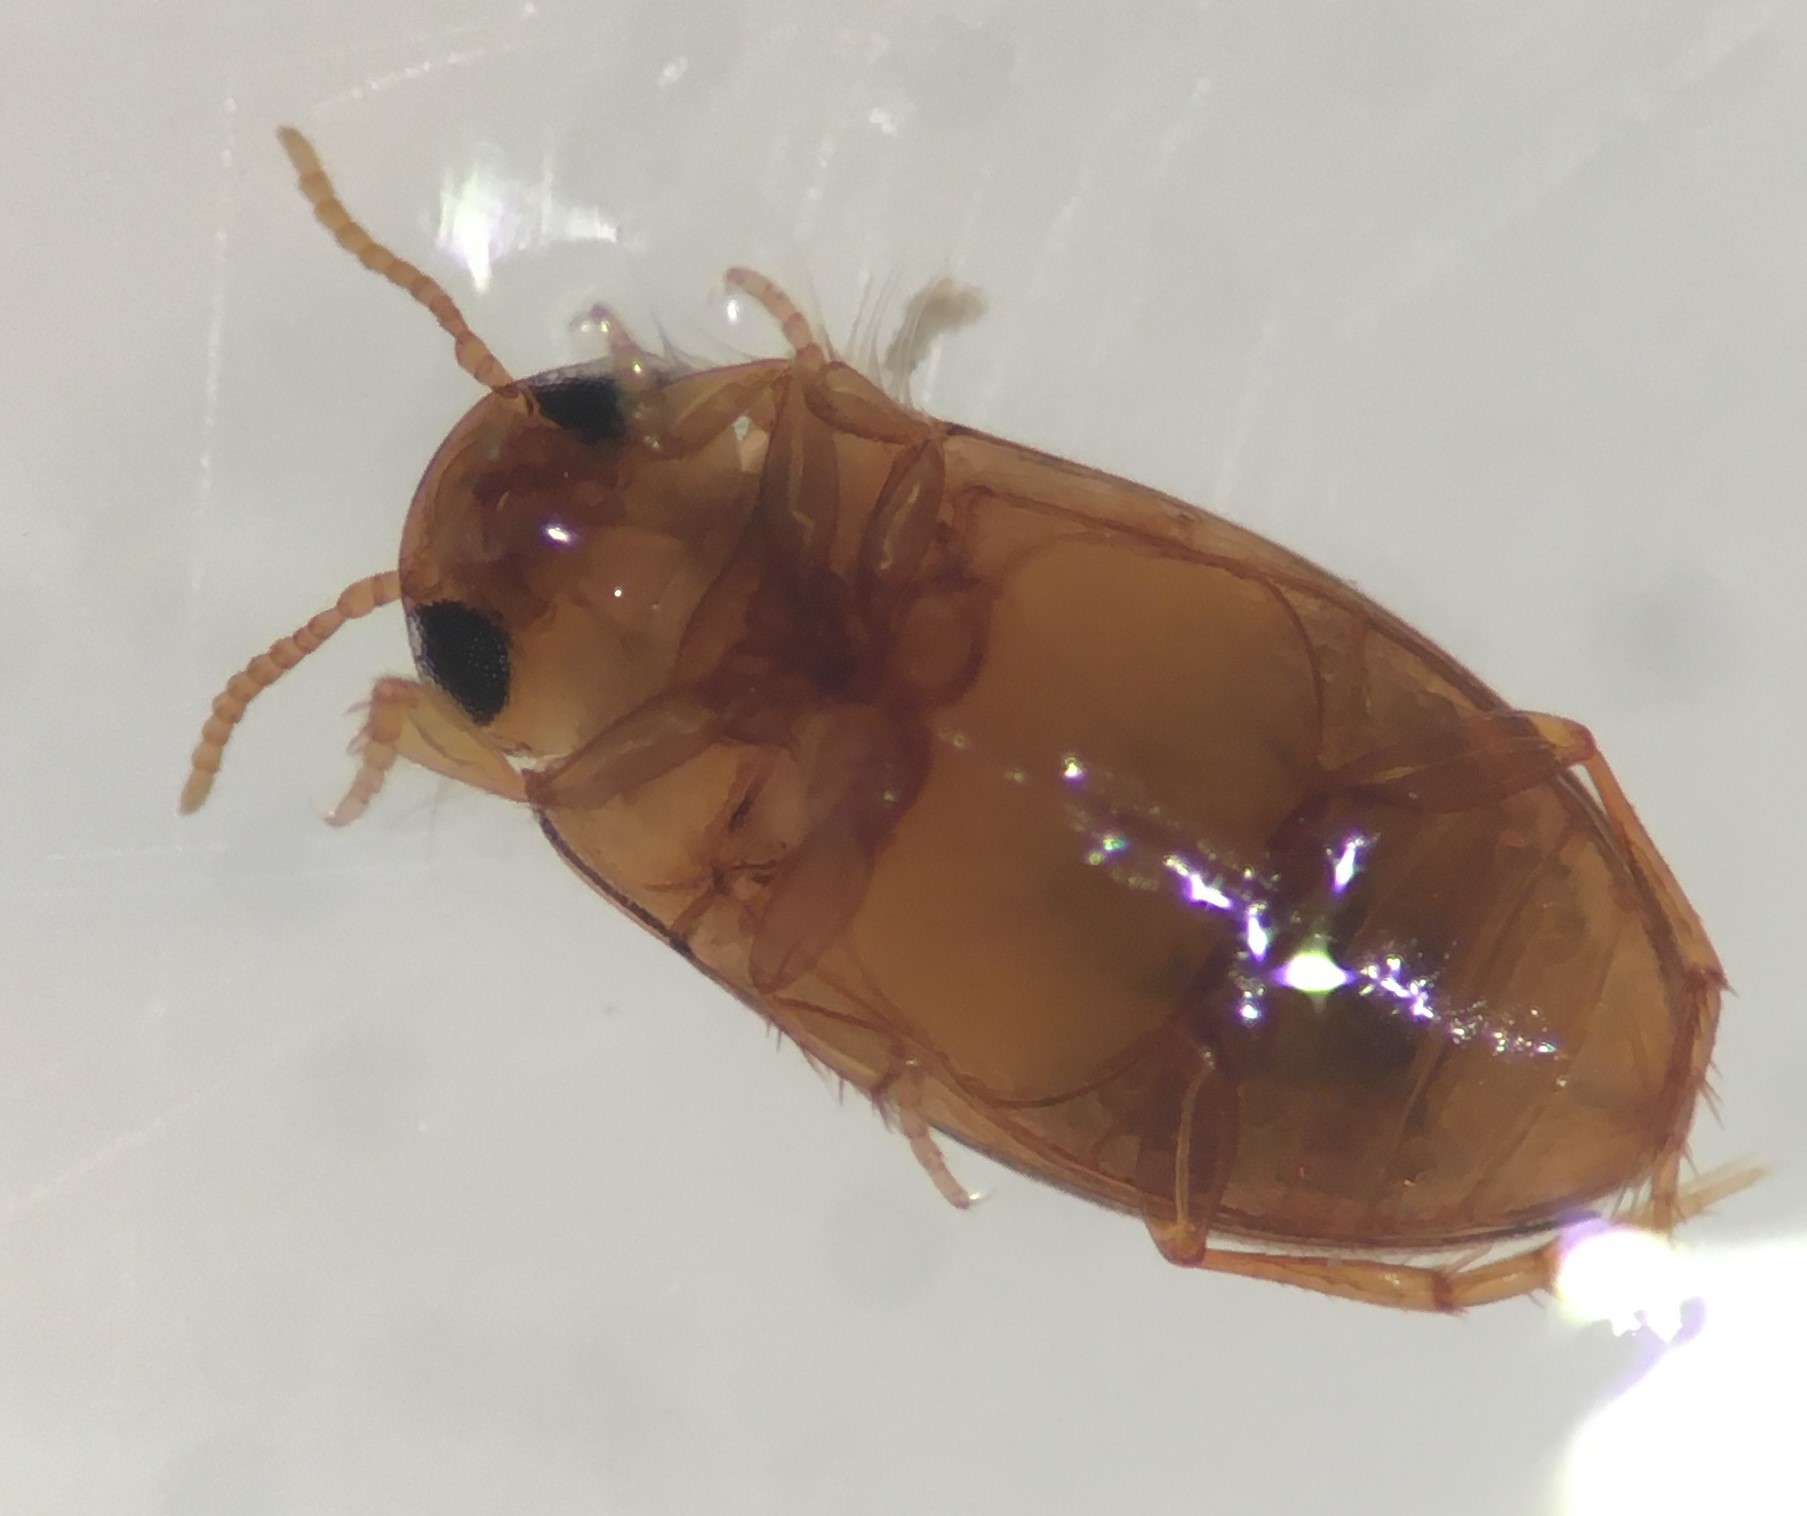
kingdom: Animalia
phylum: Arthropoda
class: Insecta
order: Coleoptera
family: Dytiscidae
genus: Neobidessus
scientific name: Neobidessus pullus
